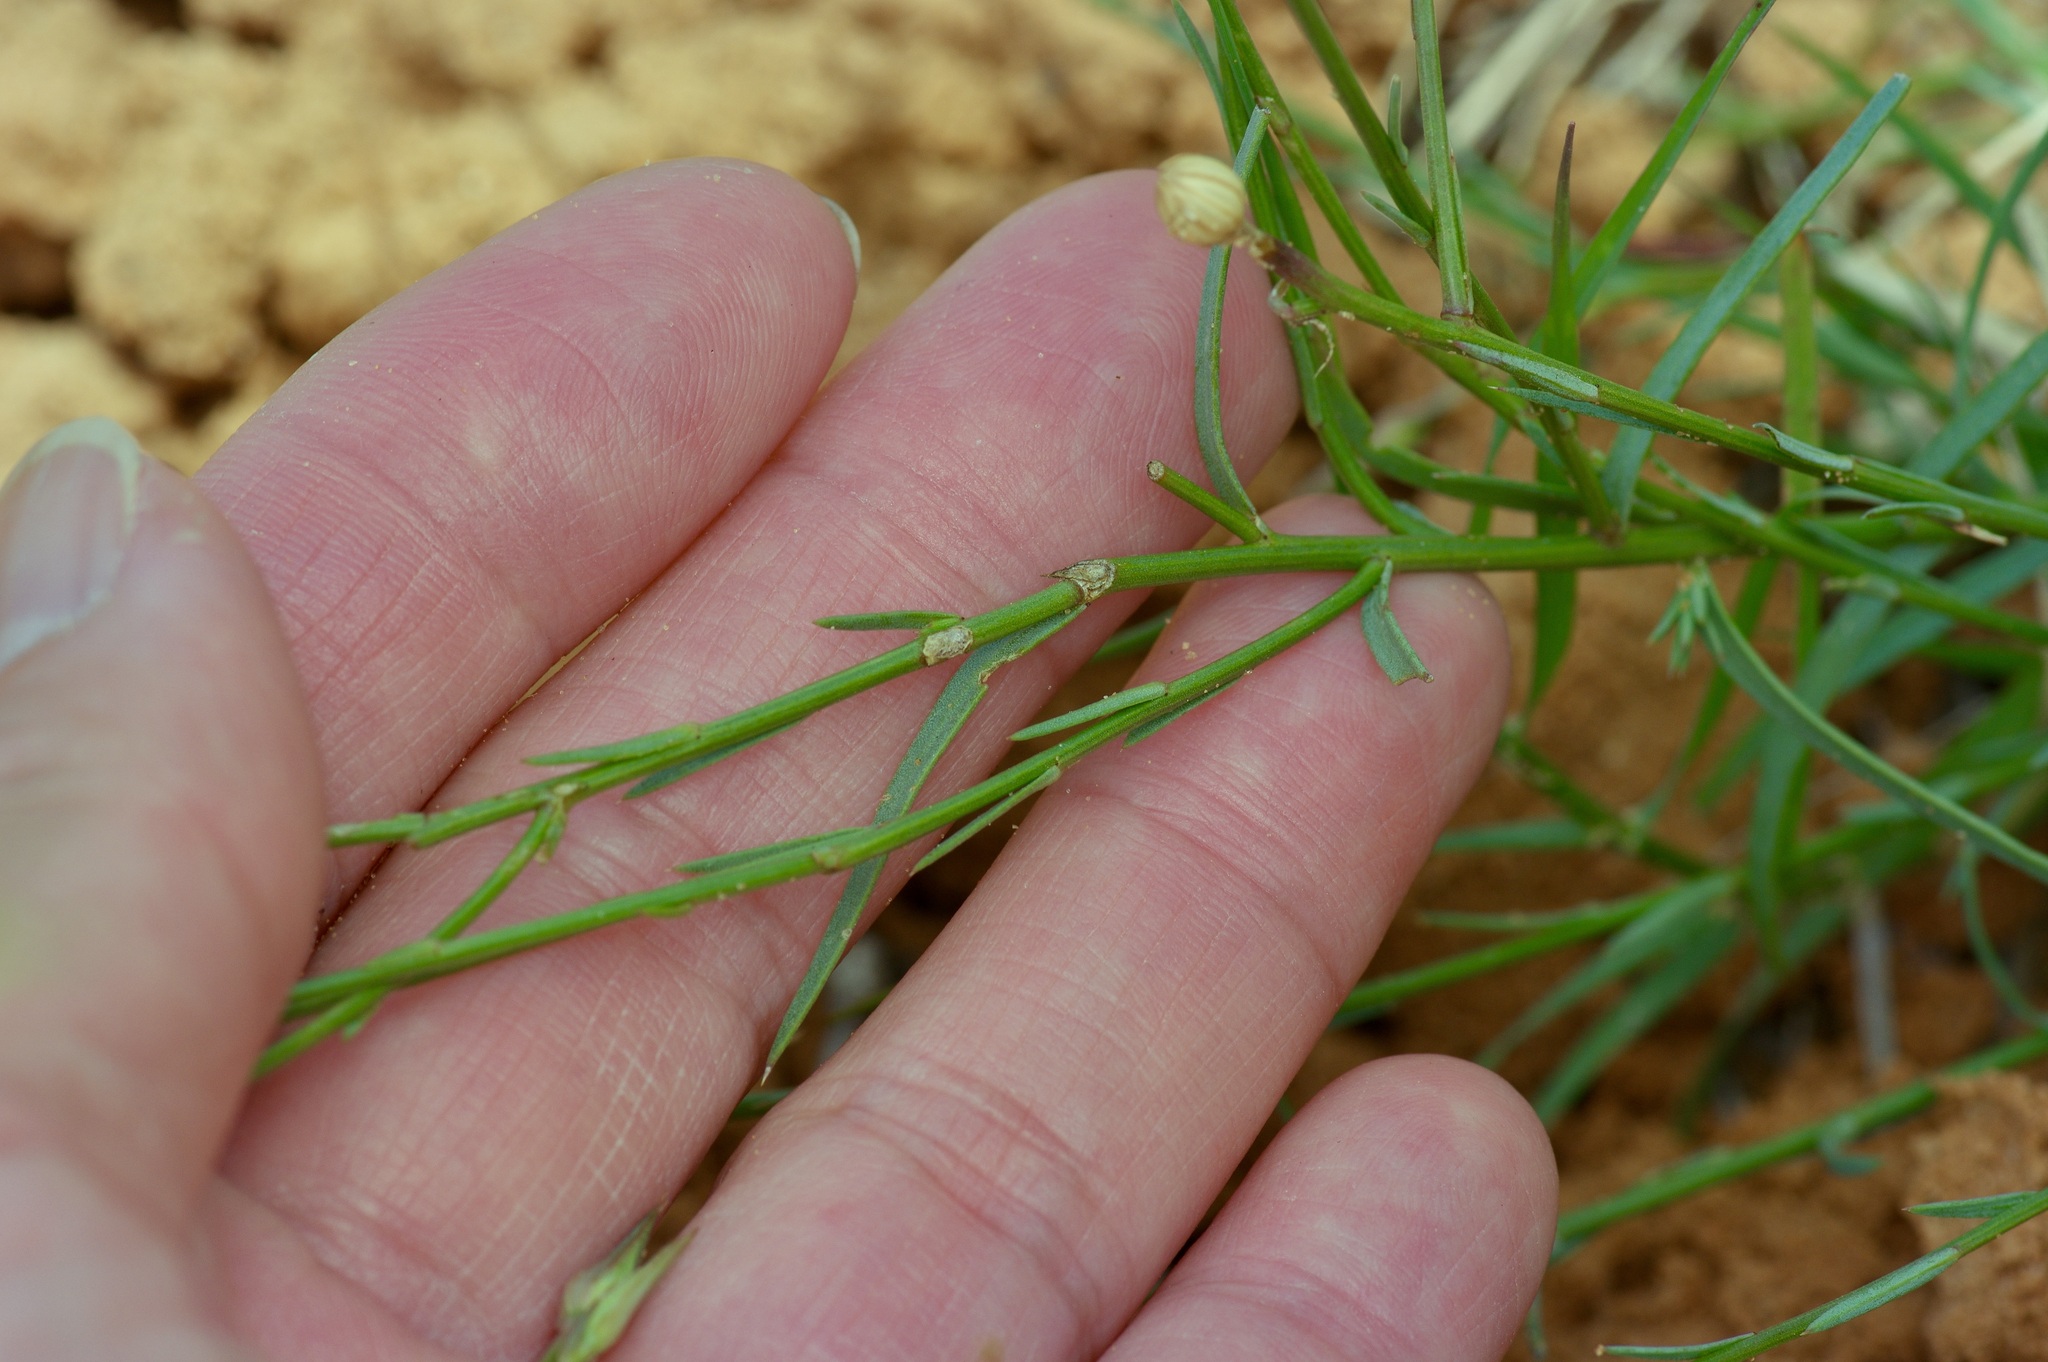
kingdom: Plantae
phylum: Tracheophyta
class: Magnoliopsida
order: Malpighiales
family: Linaceae
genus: Linum
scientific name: Linum elongatum
